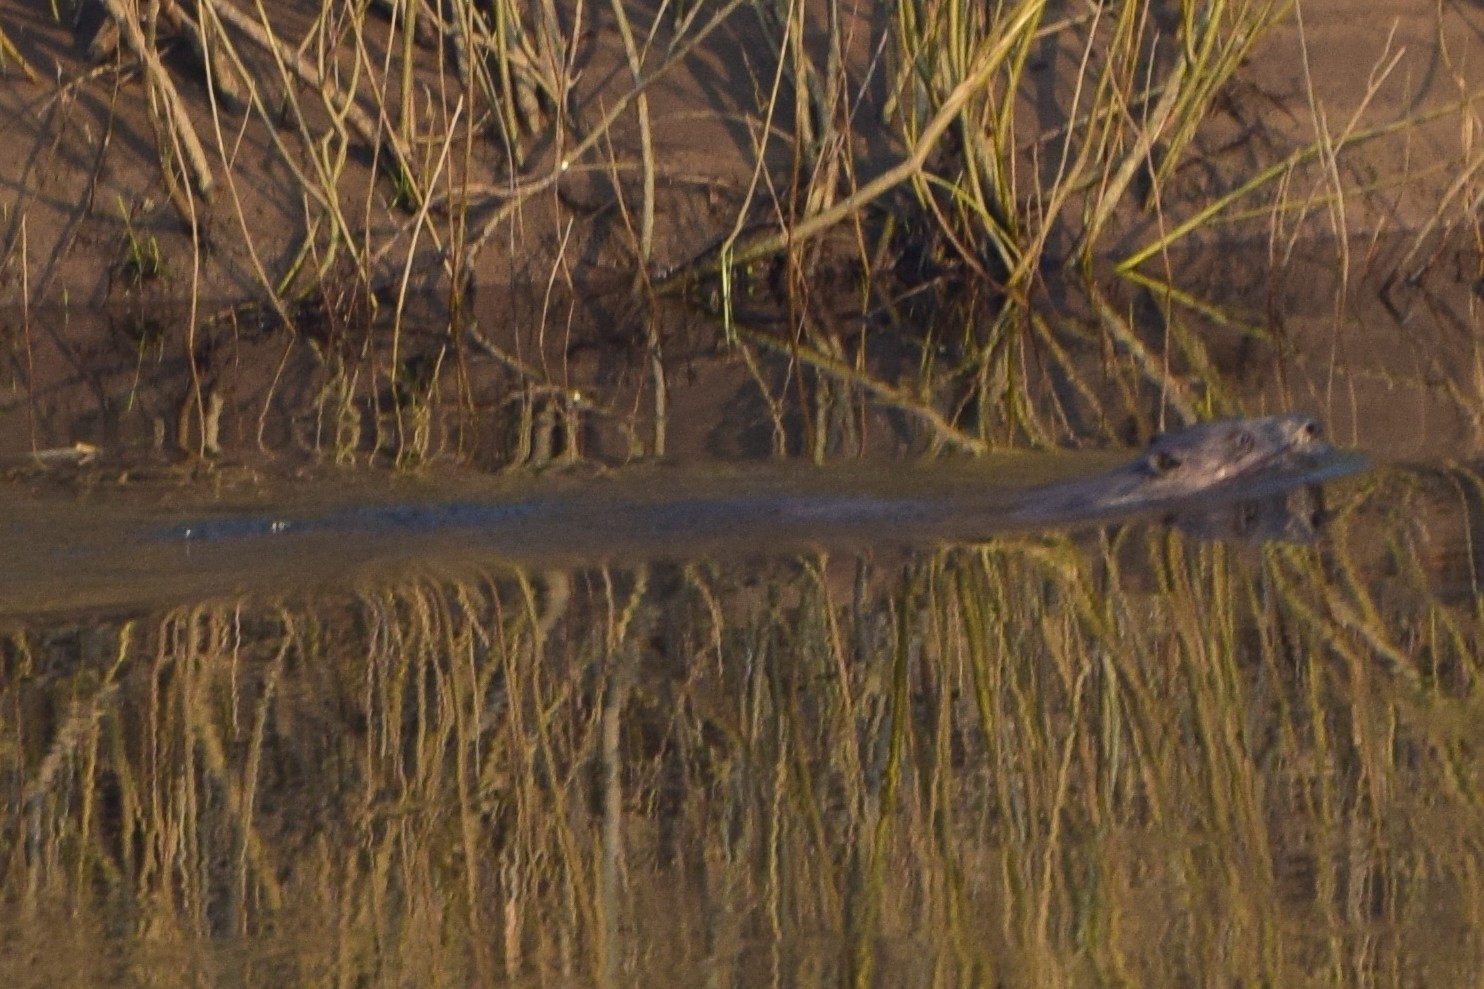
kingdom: Animalia
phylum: Chordata
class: Mammalia
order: Rodentia
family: Castoridae
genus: Castor
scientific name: Castor fiber
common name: Eurasian beaver
